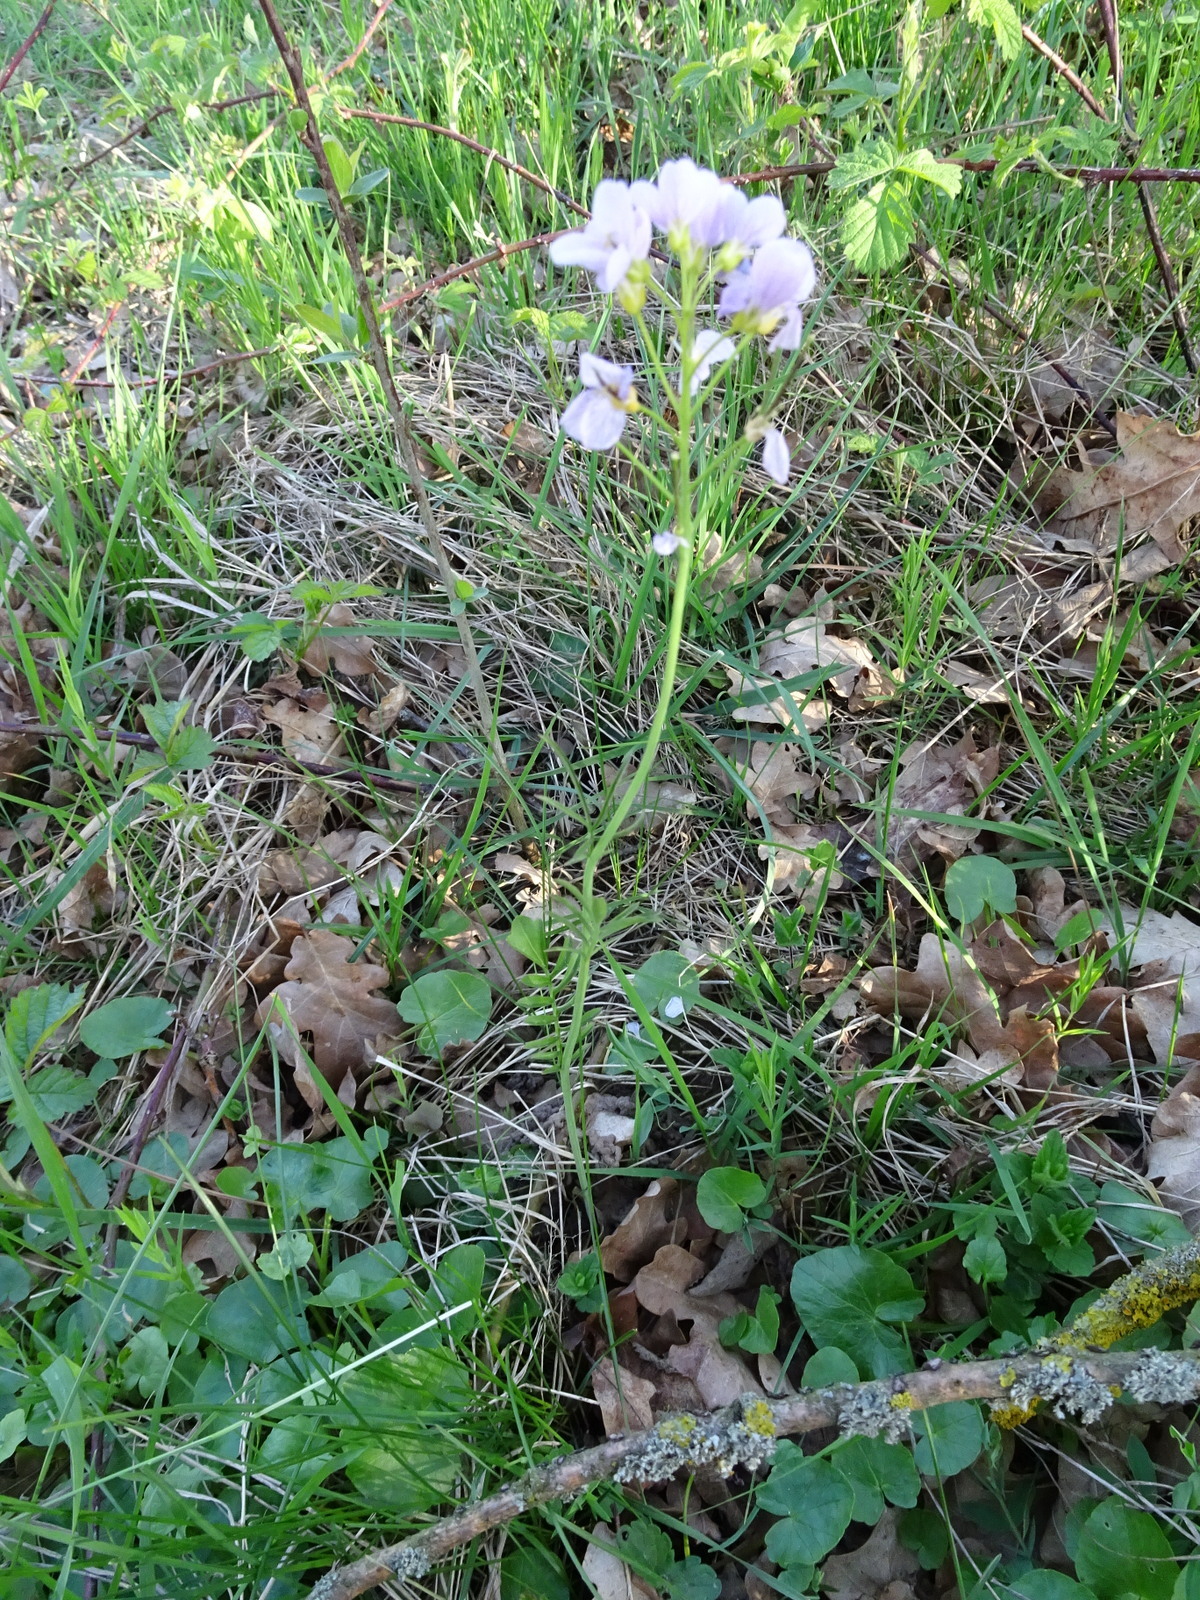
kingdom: Plantae
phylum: Tracheophyta
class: Magnoliopsida
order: Brassicales
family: Brassicaceae
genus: Cardamine
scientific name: Cardamine pratensis
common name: Cuckoo flower
